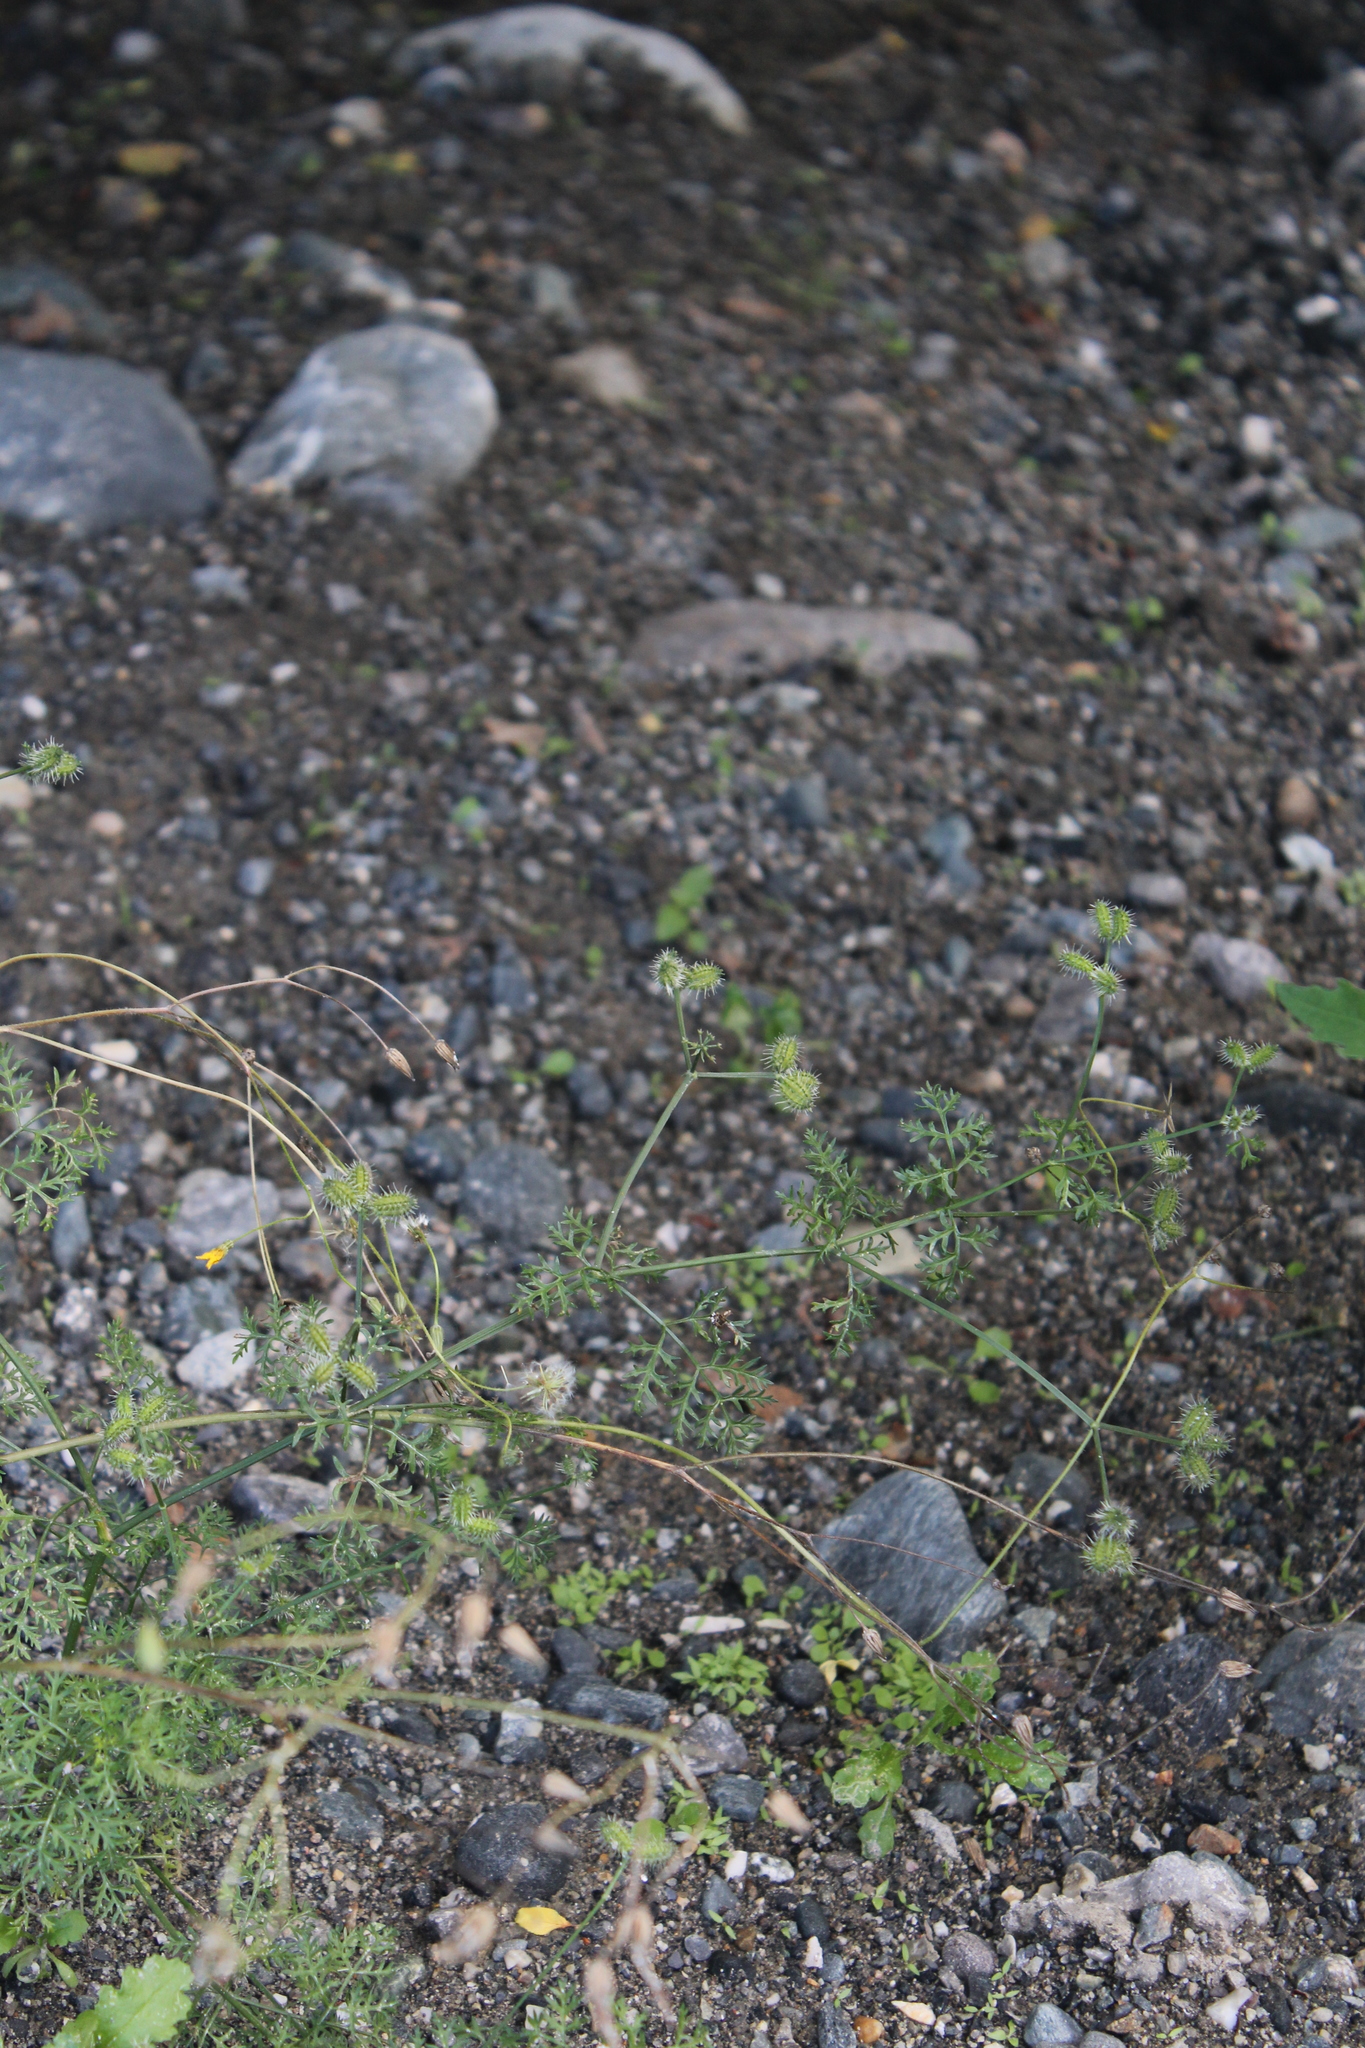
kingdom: Plantae
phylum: Tracheophyta
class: Magnoliopsida
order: Apiales
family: Apiaceae
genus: Caucalis
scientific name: Caucalis platycarpos
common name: Small bur-parsley
